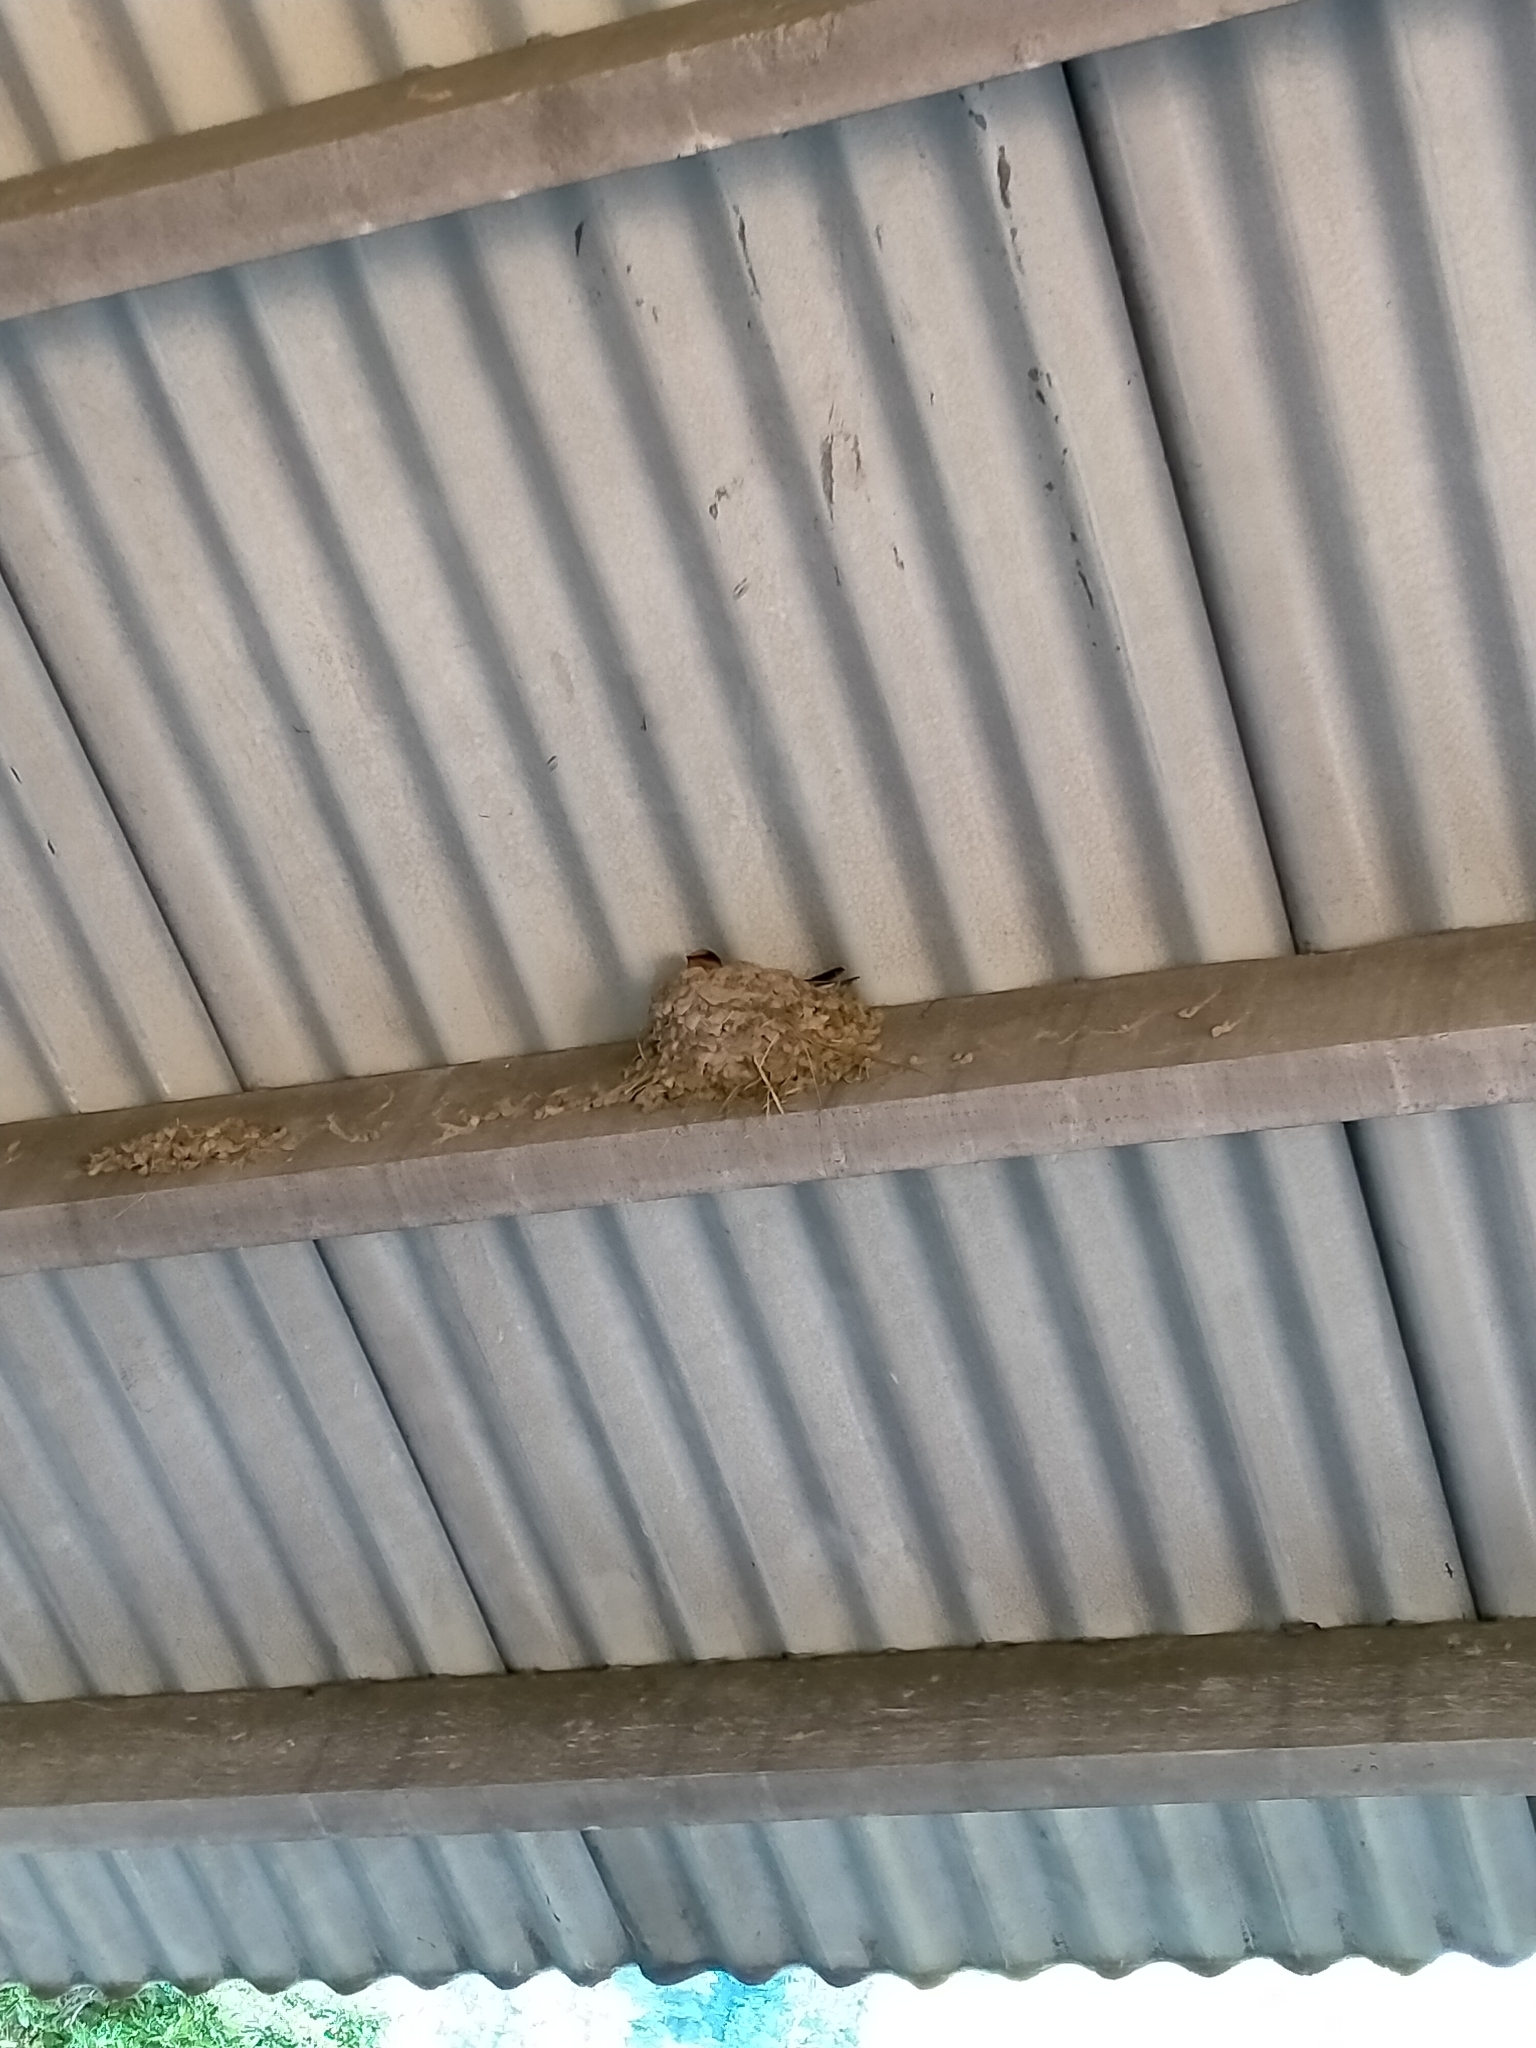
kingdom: Animalia
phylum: Chordata
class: Aves
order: Passeriformes
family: Hirundinidae
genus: Hirundo
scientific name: Hirundo neoxena
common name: Welcome swallow
